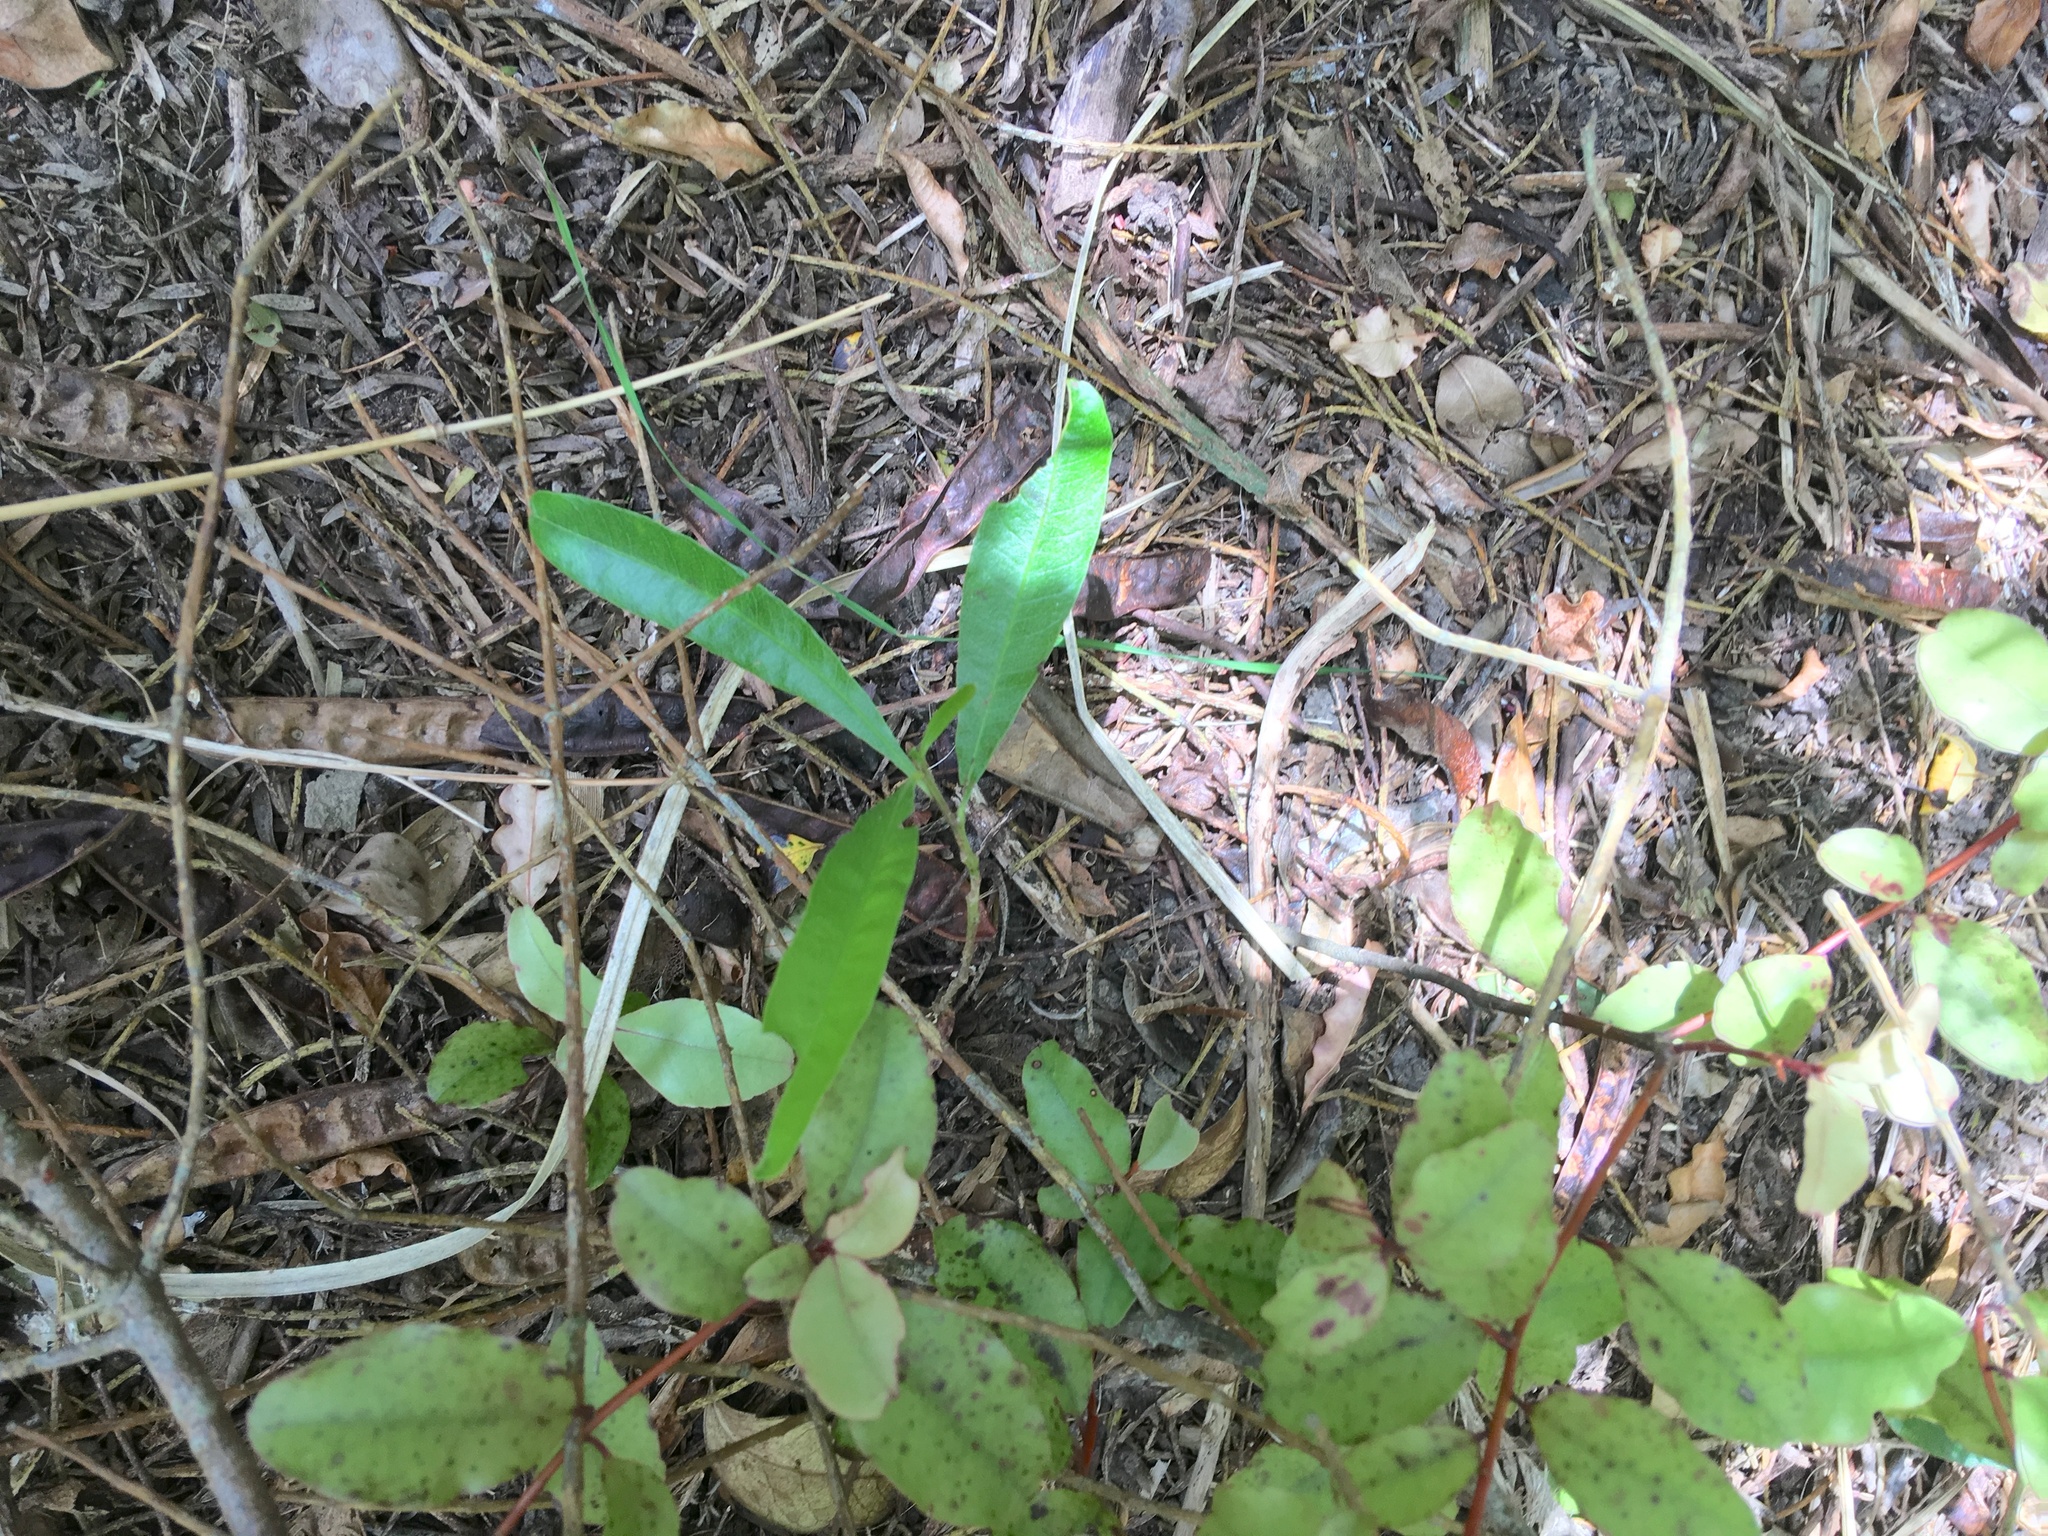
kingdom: Plantae
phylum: Tracheophyta
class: Magnoliopsida
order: Sapindales
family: Sapindaceae
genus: Dodonaea
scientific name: Dodonaea viscosa
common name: Hopbush
